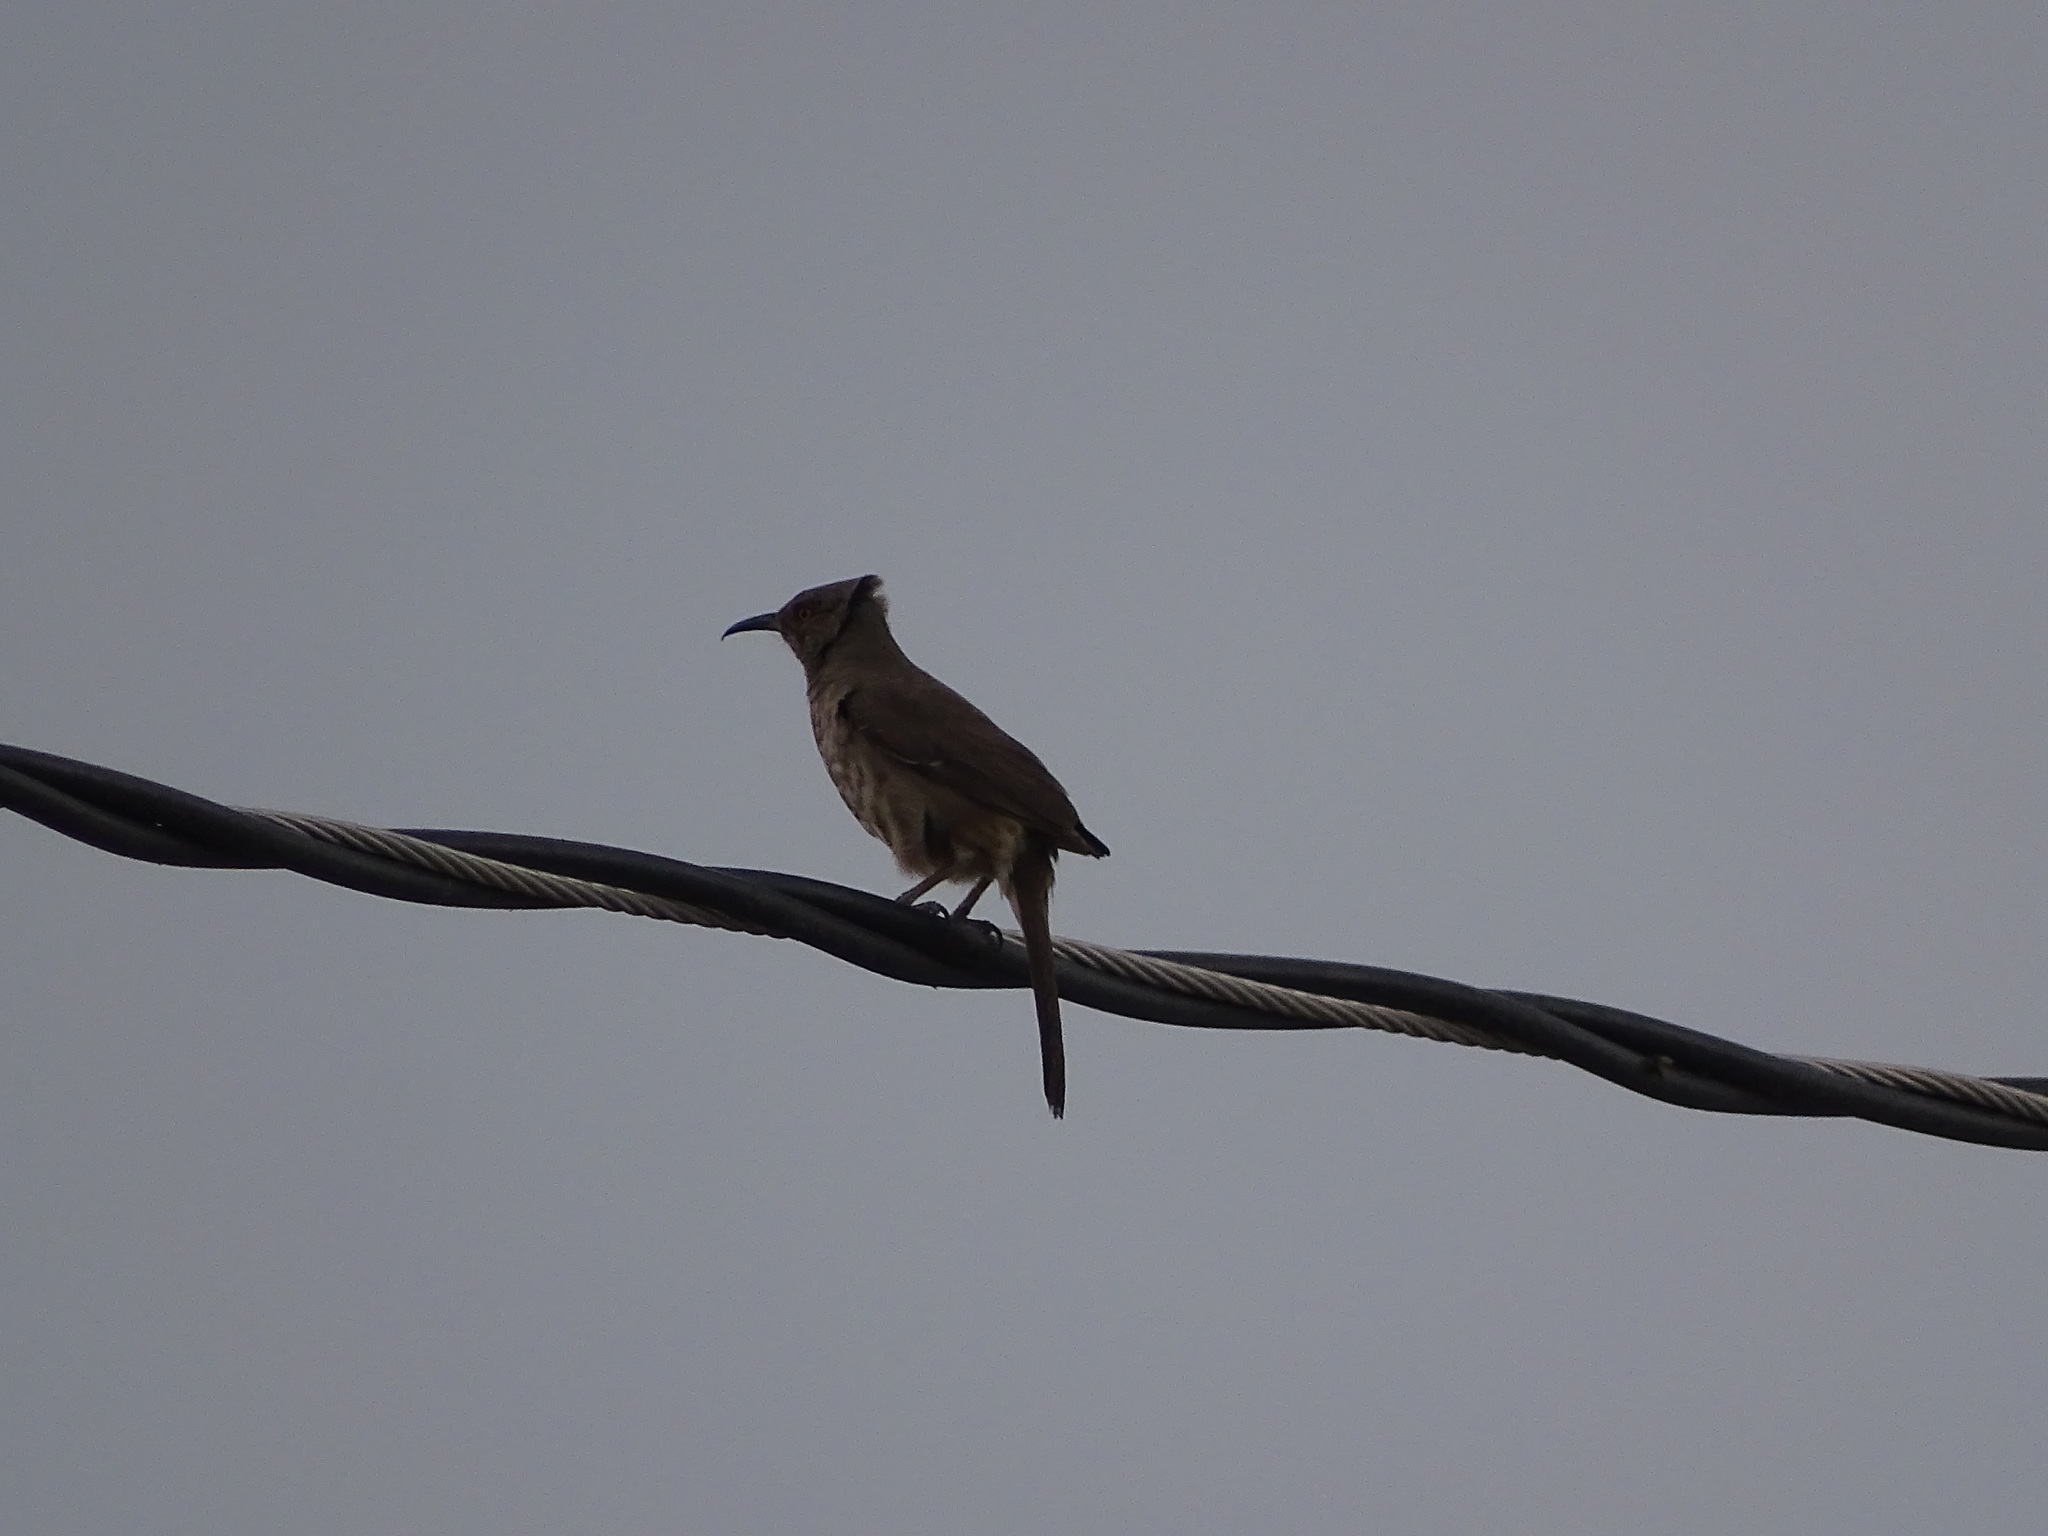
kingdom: Animalia
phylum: Chordata
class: Aves
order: Passeriformes
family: Mimidae
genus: Toxostoma
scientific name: Toxostoma curvirostre
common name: Curve-billed thrasher
